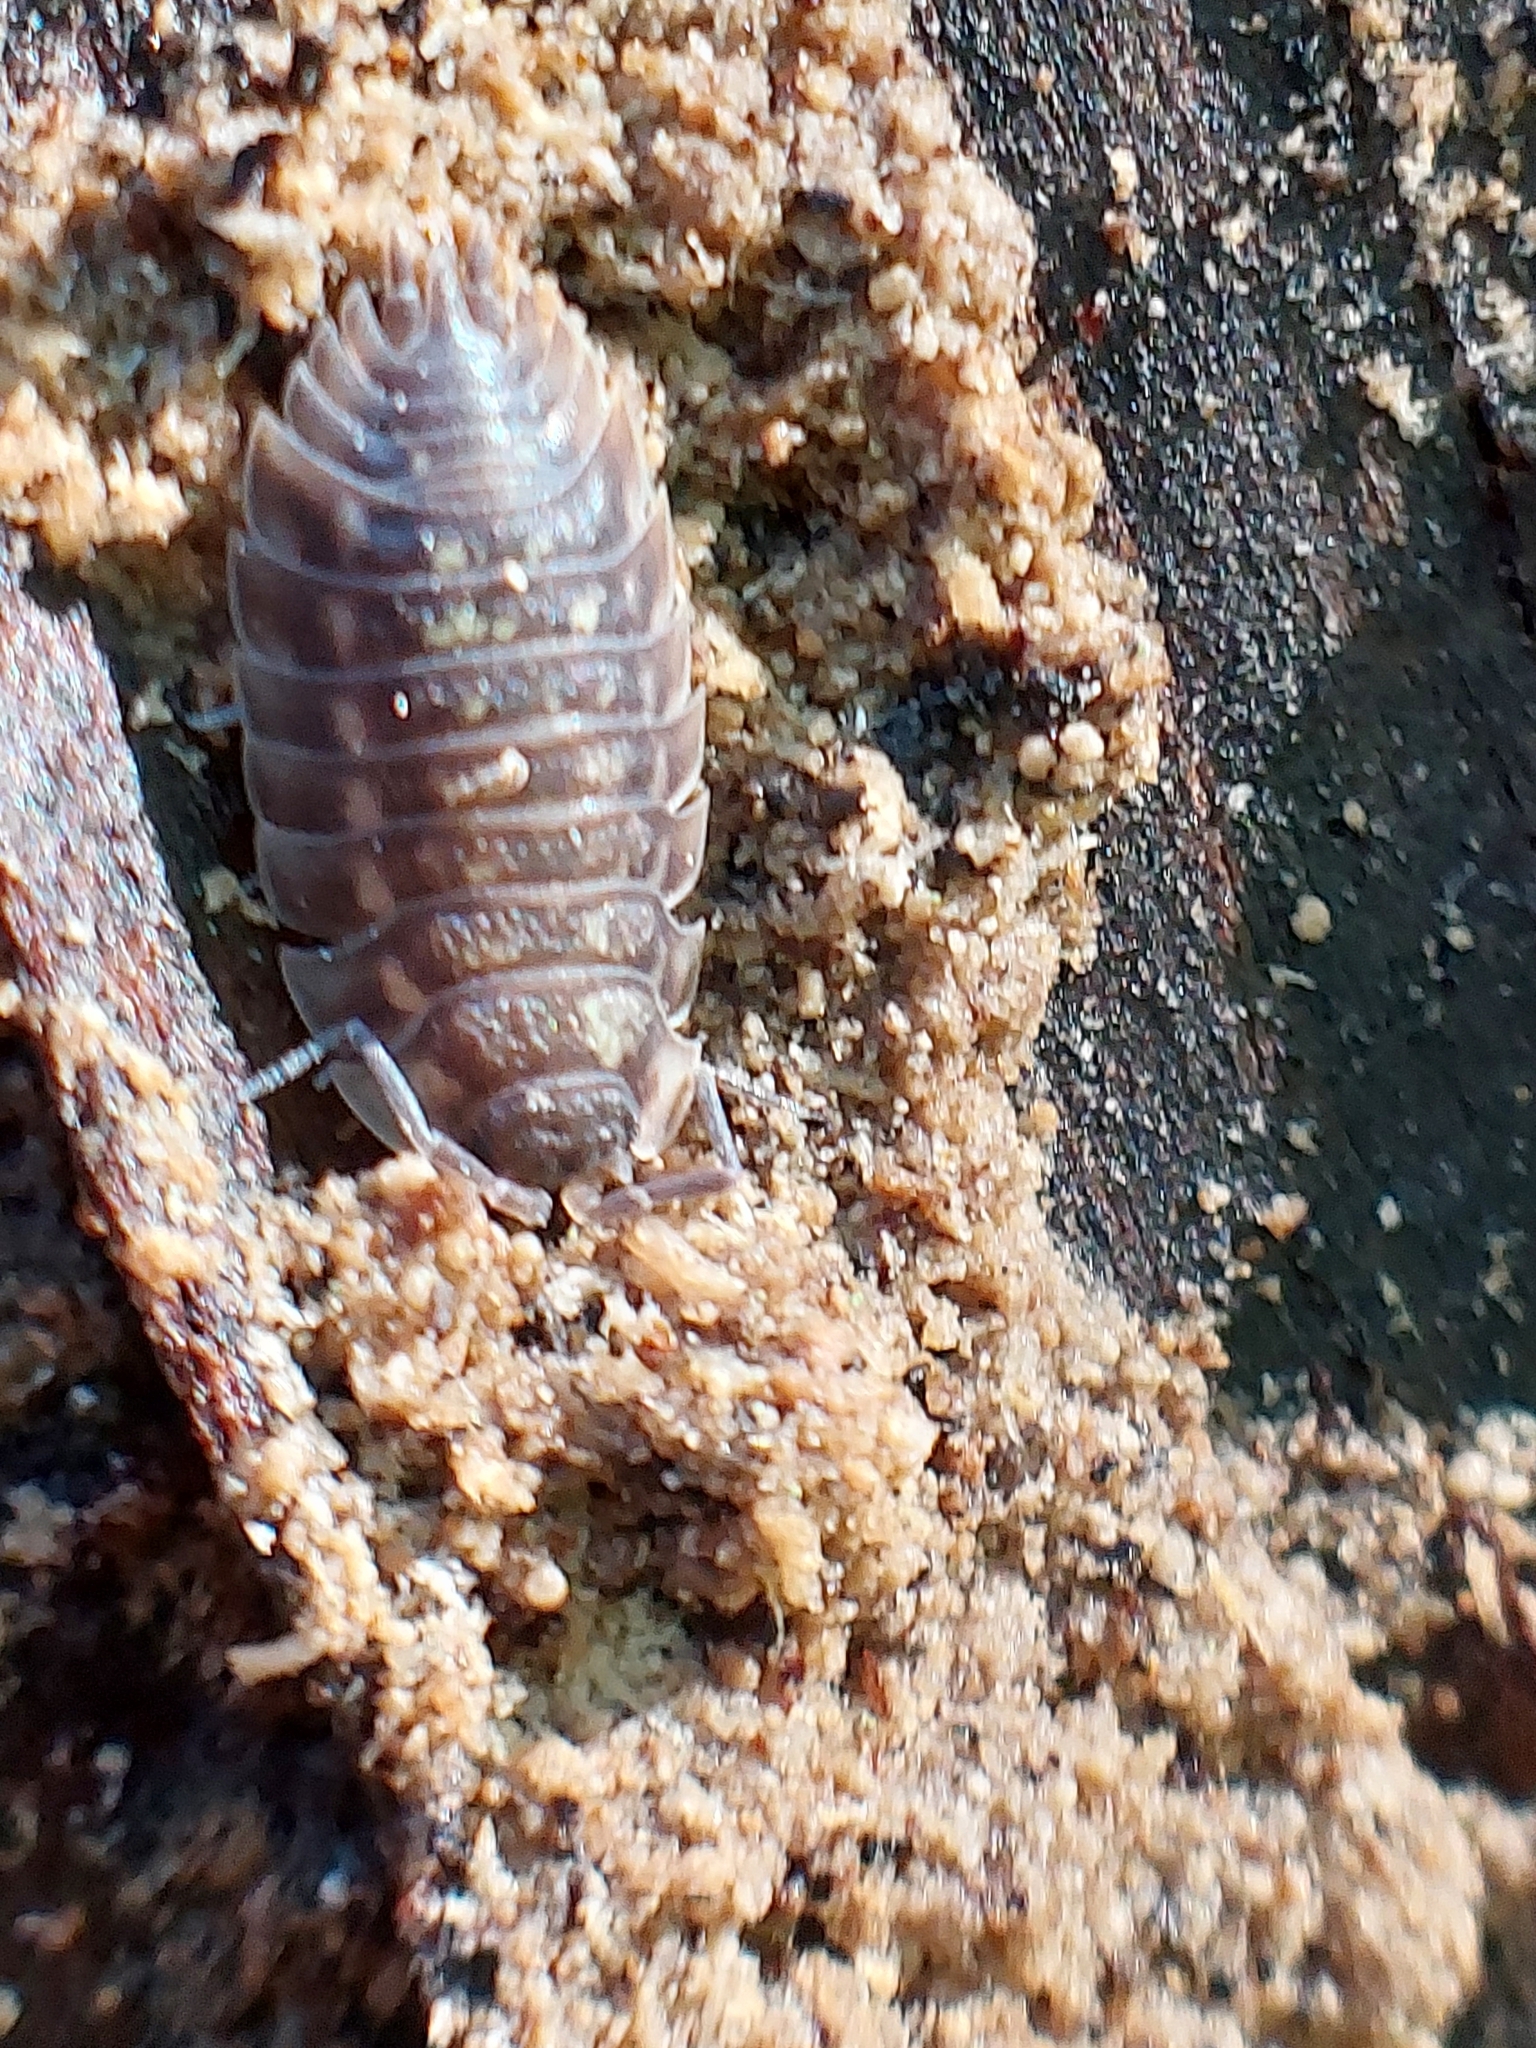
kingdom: Animalia
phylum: Arthropoda
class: Malacostraca
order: Isopoda
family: Oniscidae
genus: Oniscus
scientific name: Oniscus asellus
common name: Common shiny woodlouse
